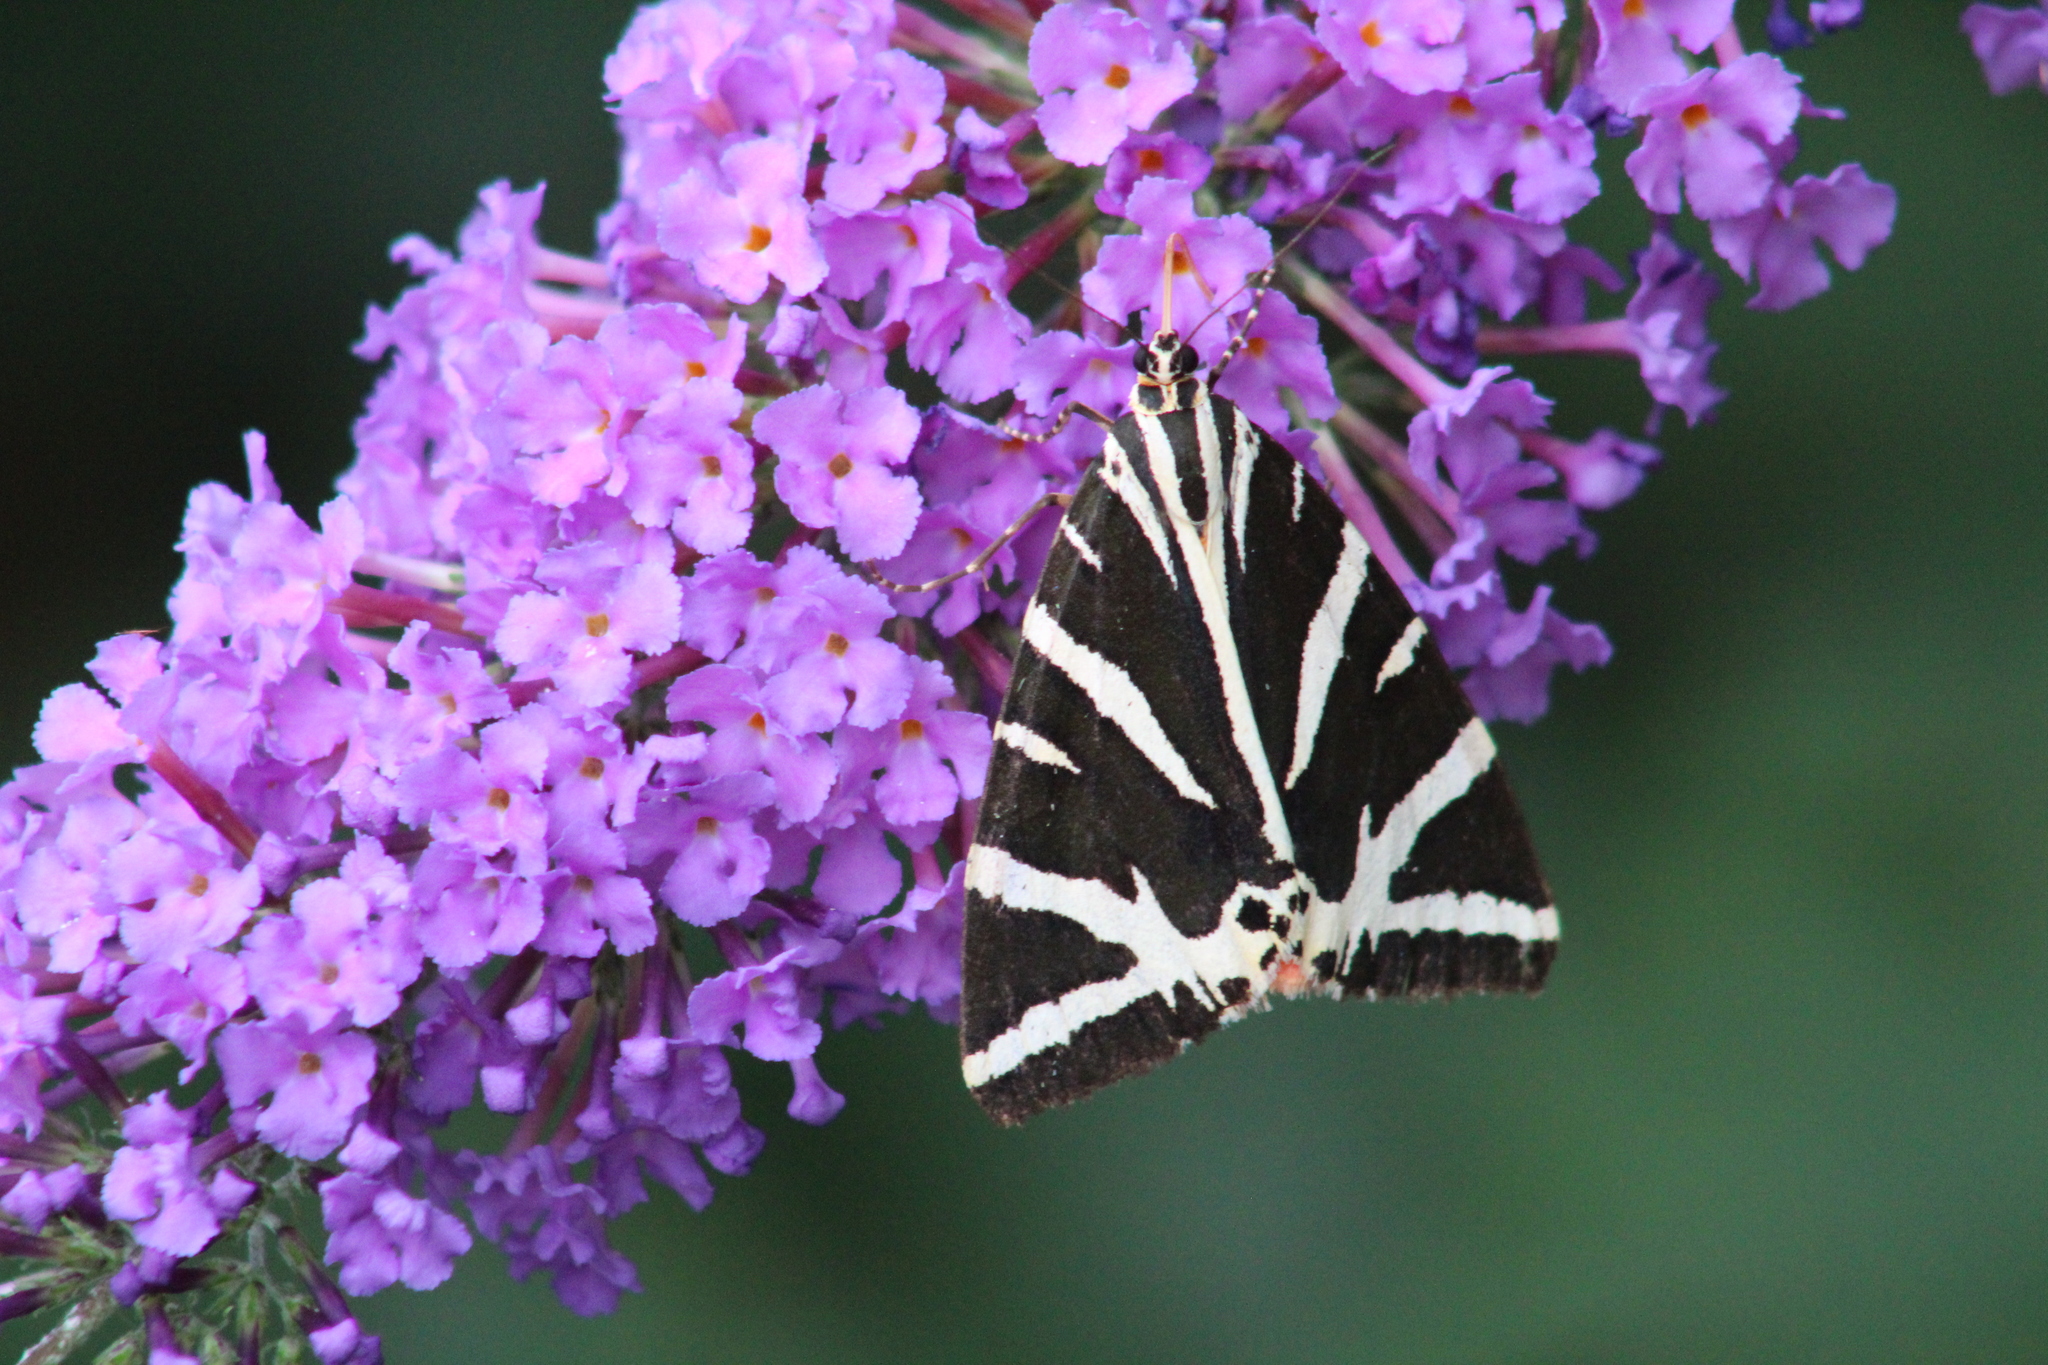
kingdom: Animalia
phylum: Arthropoda
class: Insecta
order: Lepidoptera
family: Erebidae
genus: Euplagia
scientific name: Euplagia quadripunctaria
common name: Jersey tiger
